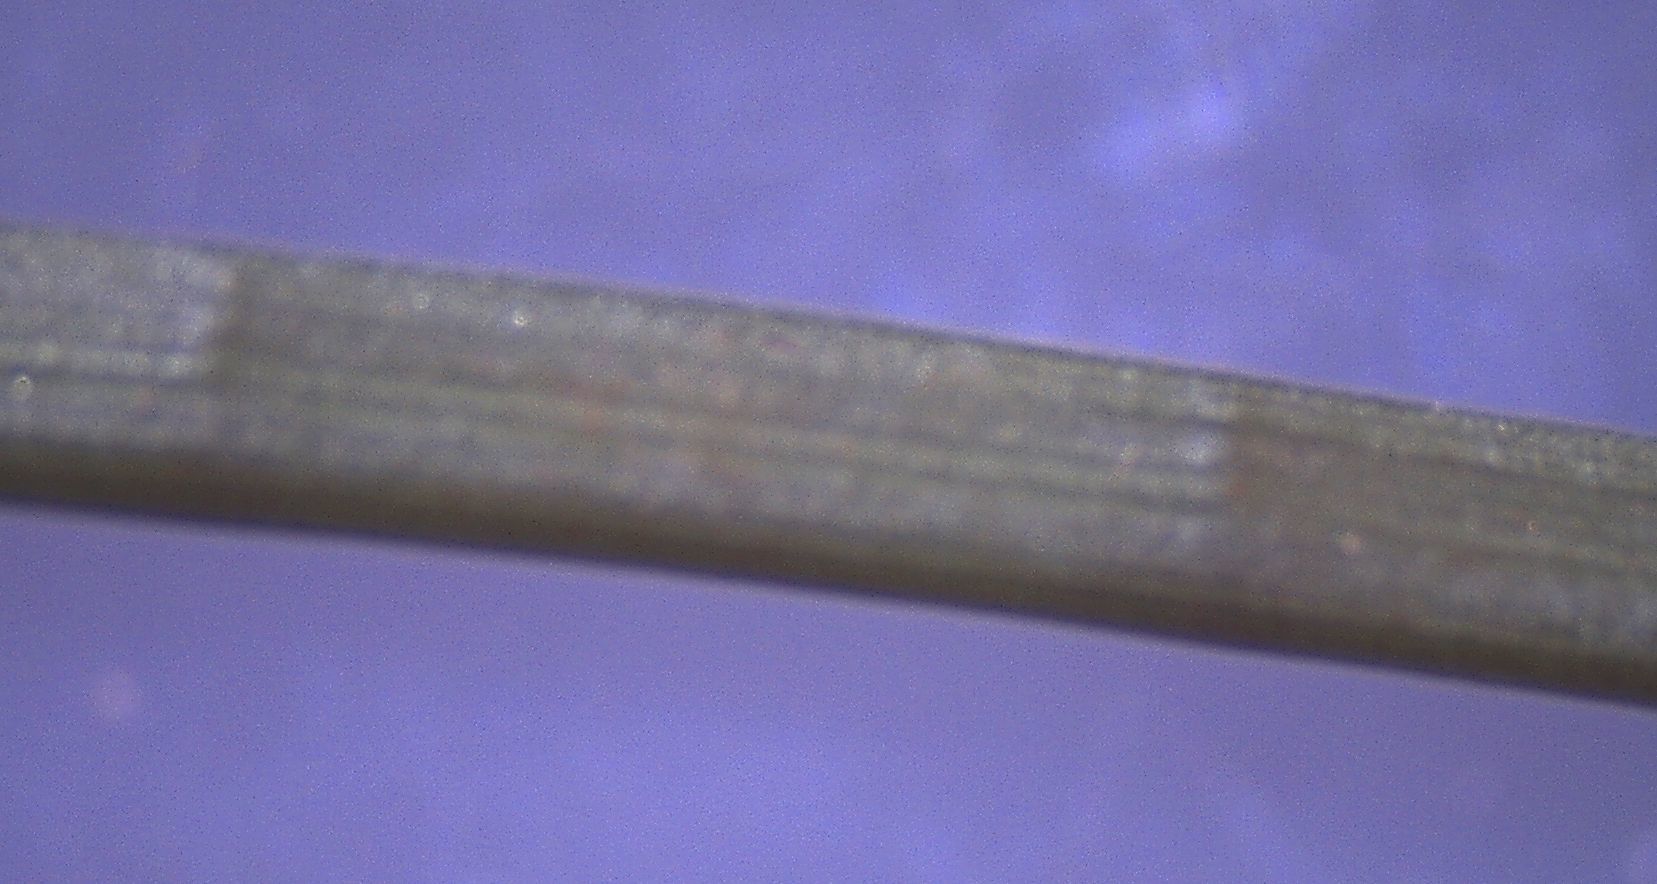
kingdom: Plantae
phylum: Tracheophyta
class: Liliopsida
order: Poales
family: Juncaceae
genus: Juncus
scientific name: Juncus microcephalus
